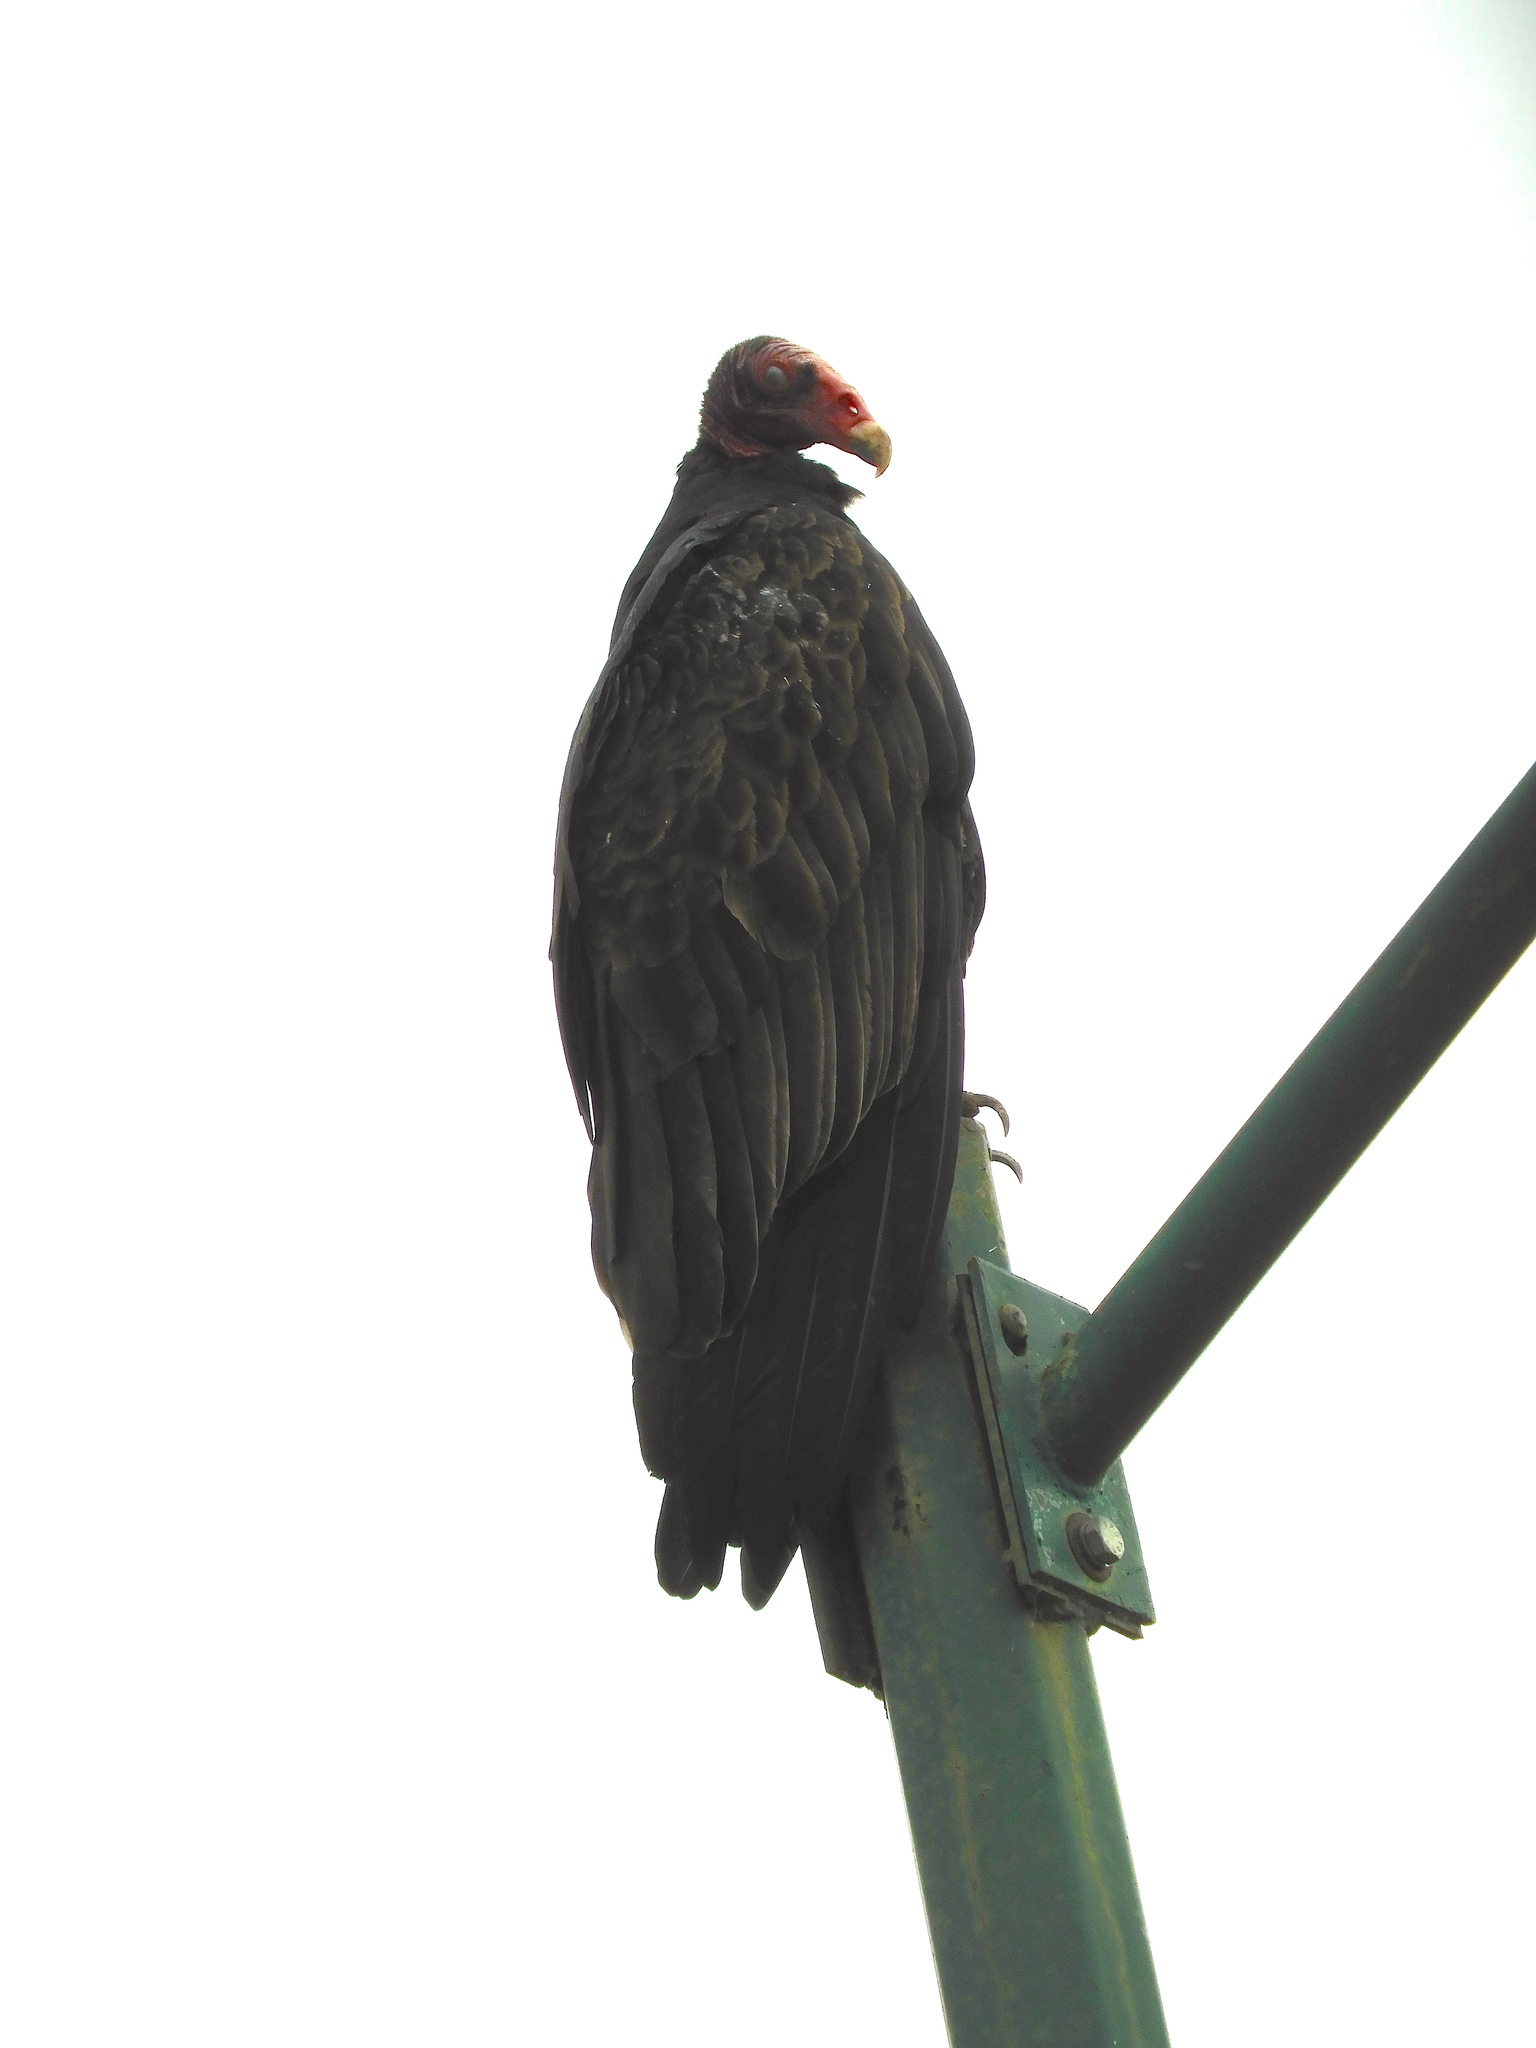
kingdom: Animalia
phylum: Chordata
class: Aves
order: Accipitriformes
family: Cathartidae
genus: Cathartes
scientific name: Cathartes aura
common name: Turkey vulture
